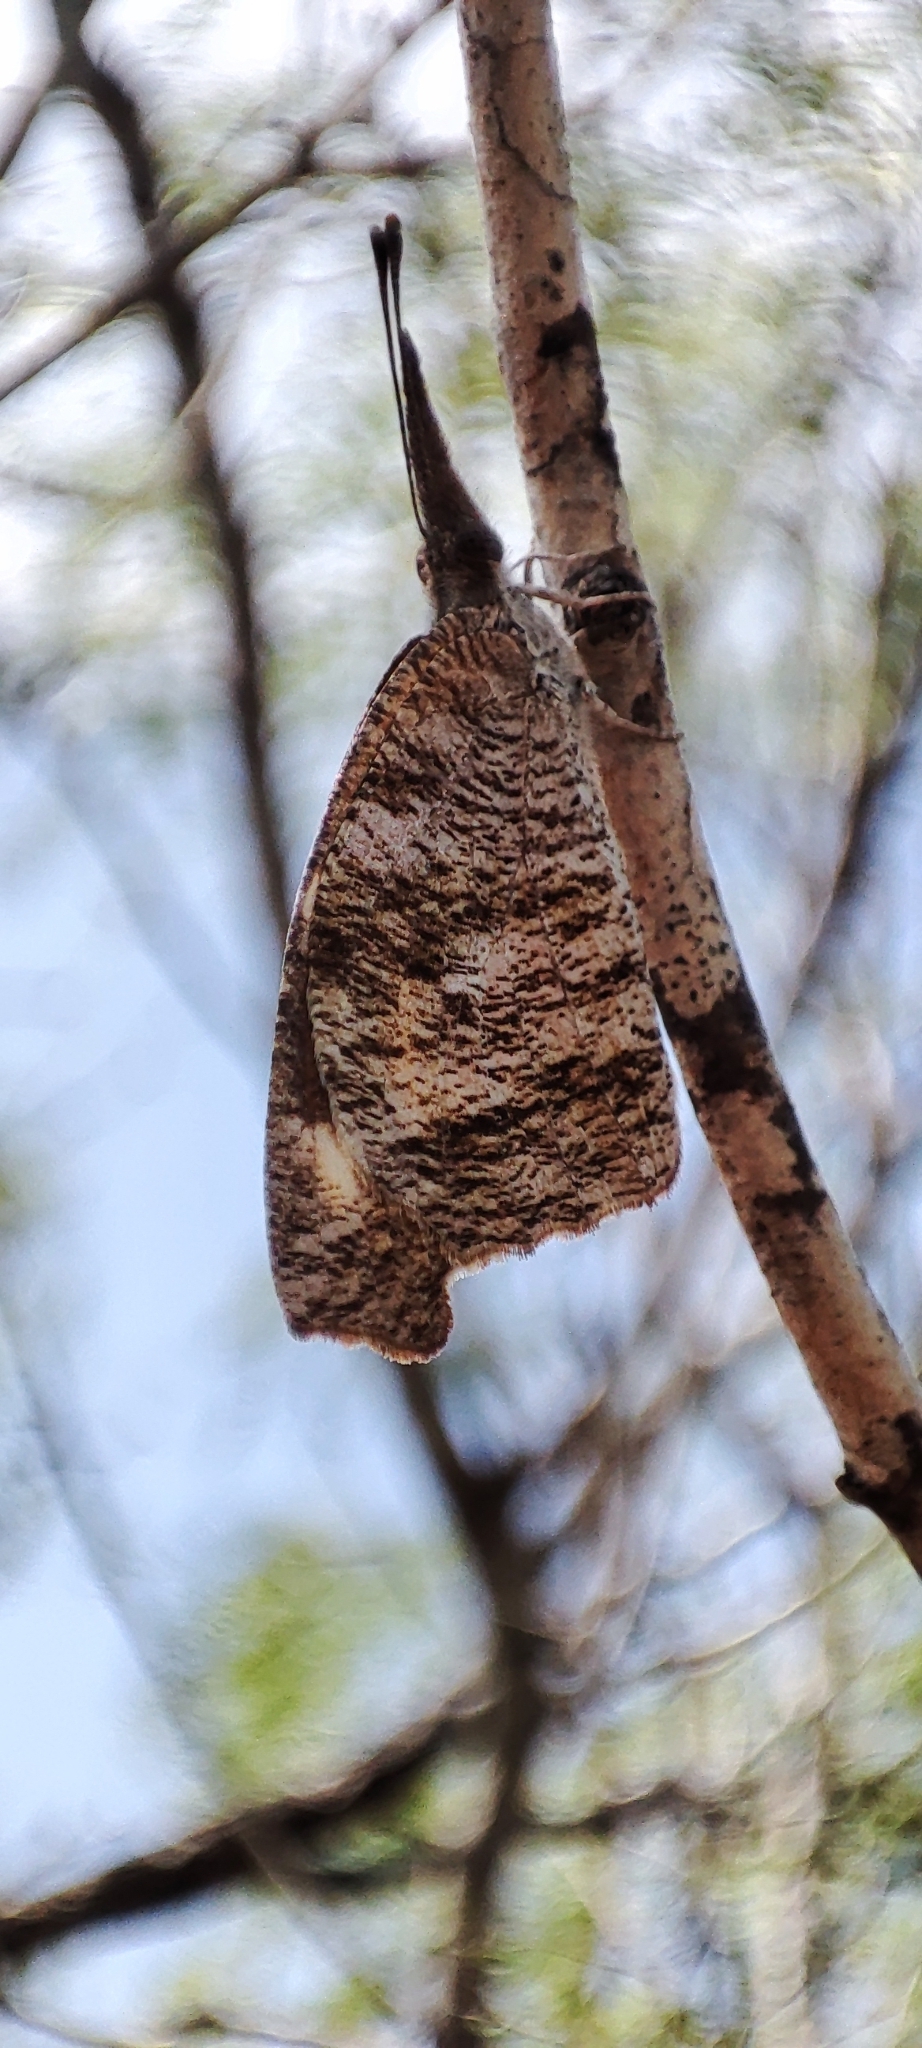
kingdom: Animalia
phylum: Arthropoda
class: Insecta
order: Lepidoptera
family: Nymphalidae
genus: Libytheana
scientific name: Libytheana carinenta
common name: American snout
